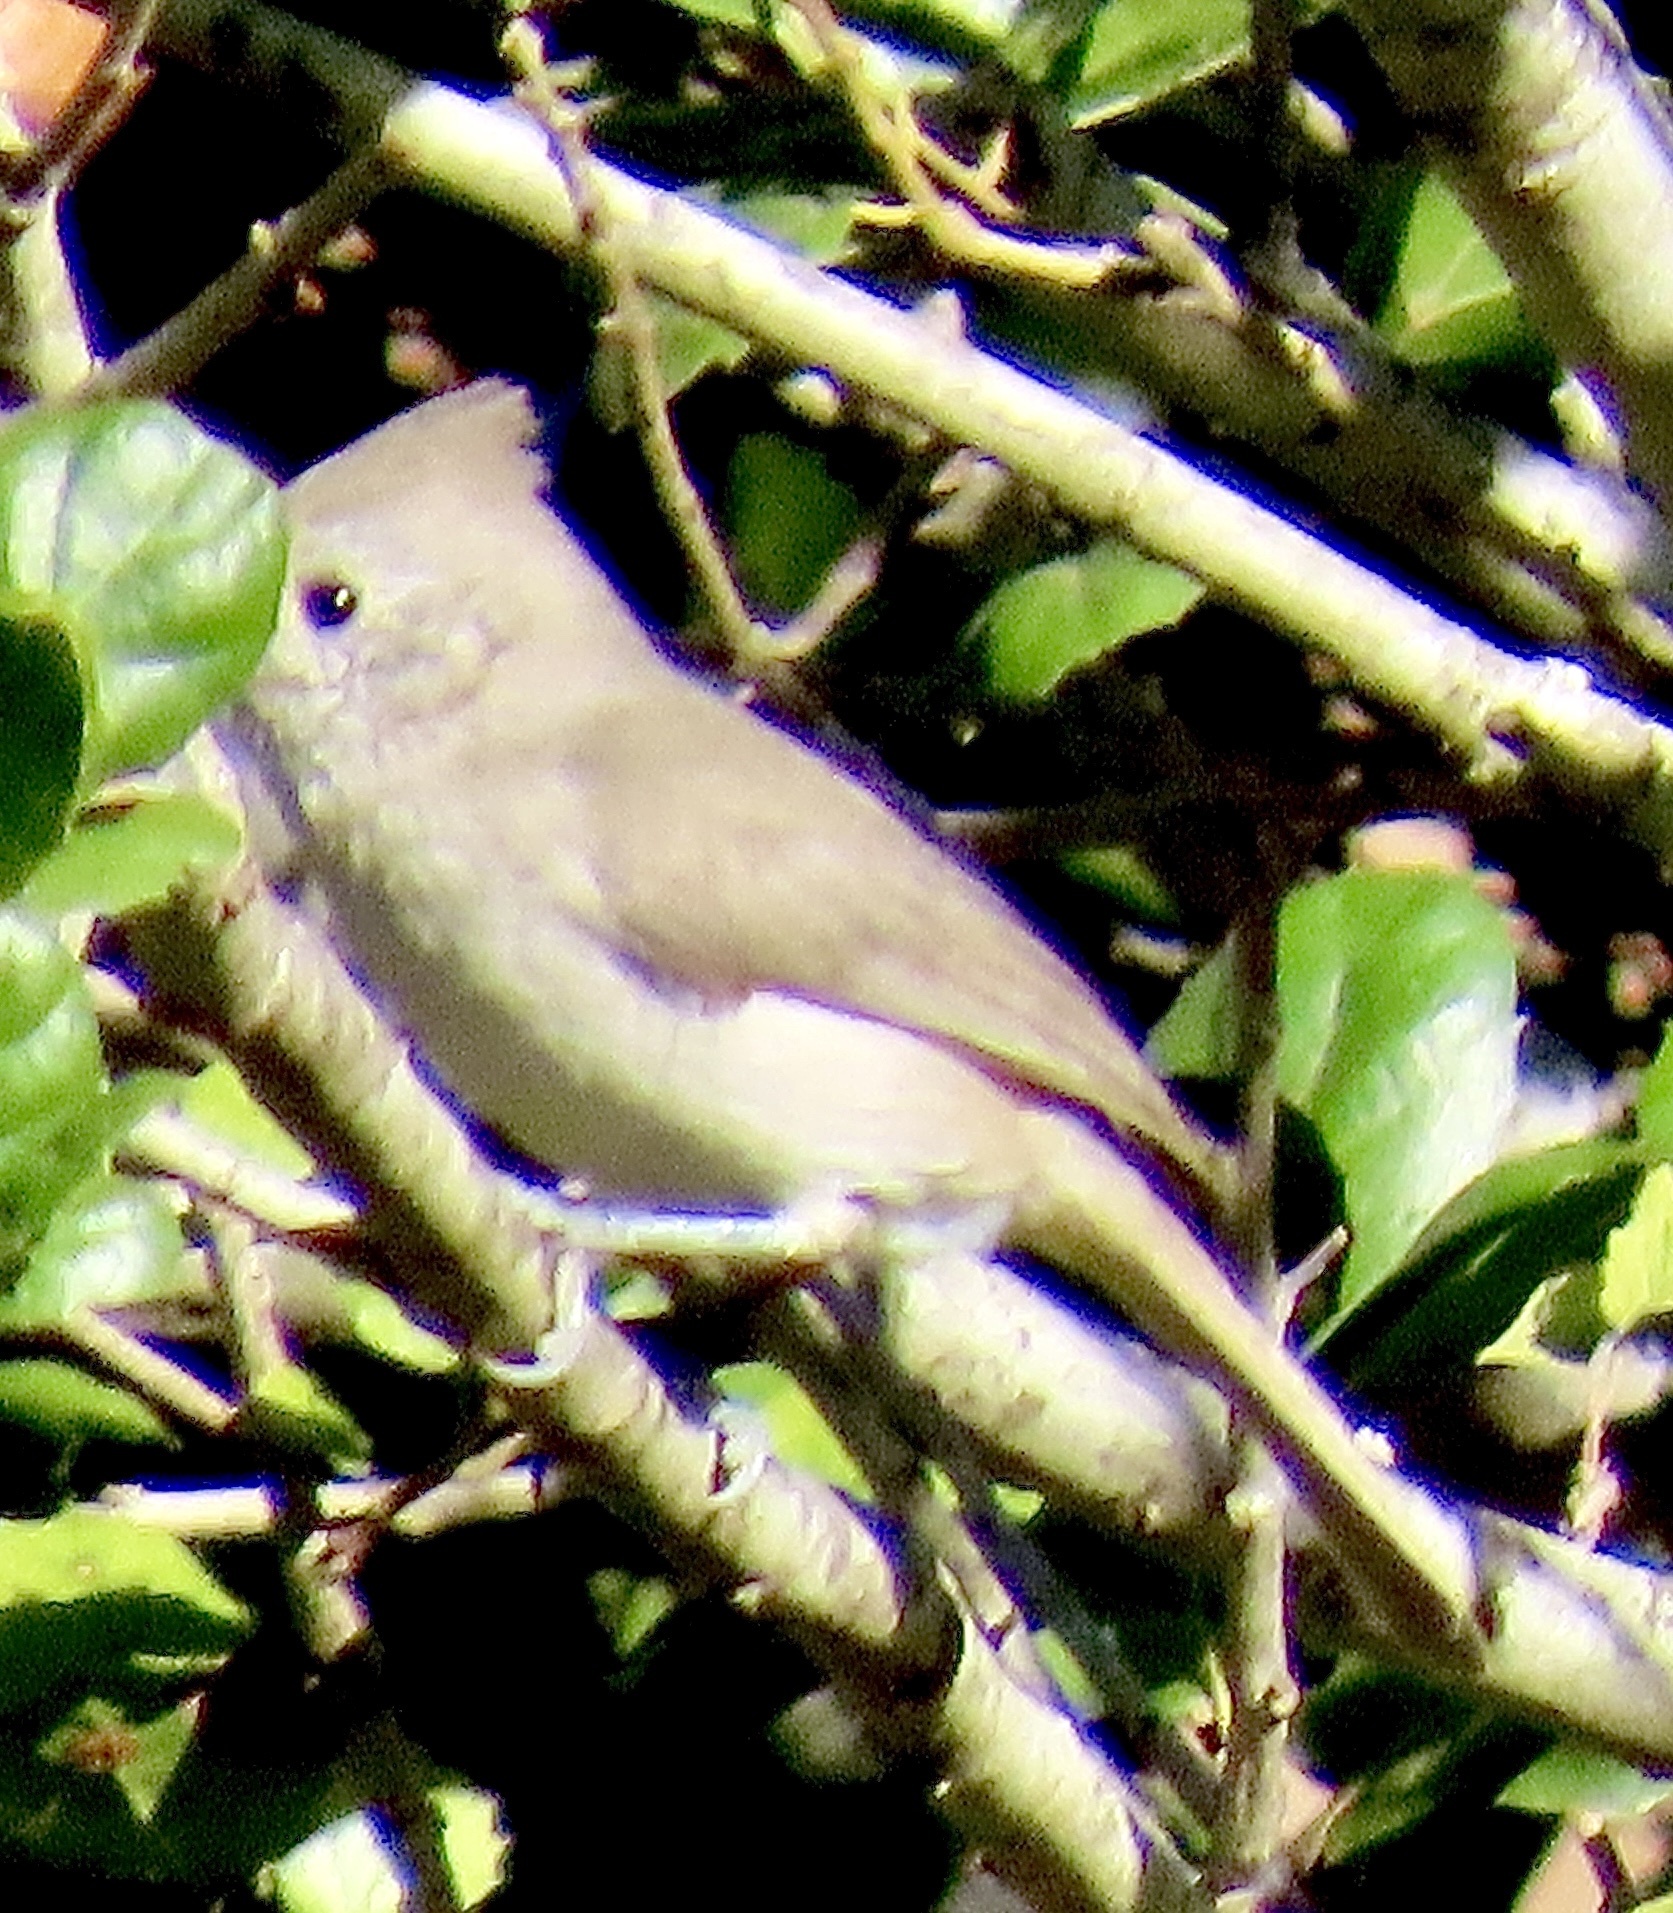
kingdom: Animalia
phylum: Chordata
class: Aves
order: Passeriformes
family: Paridae
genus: Baeolophus
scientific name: Baeolophus inornatus
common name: Oak titmouse
